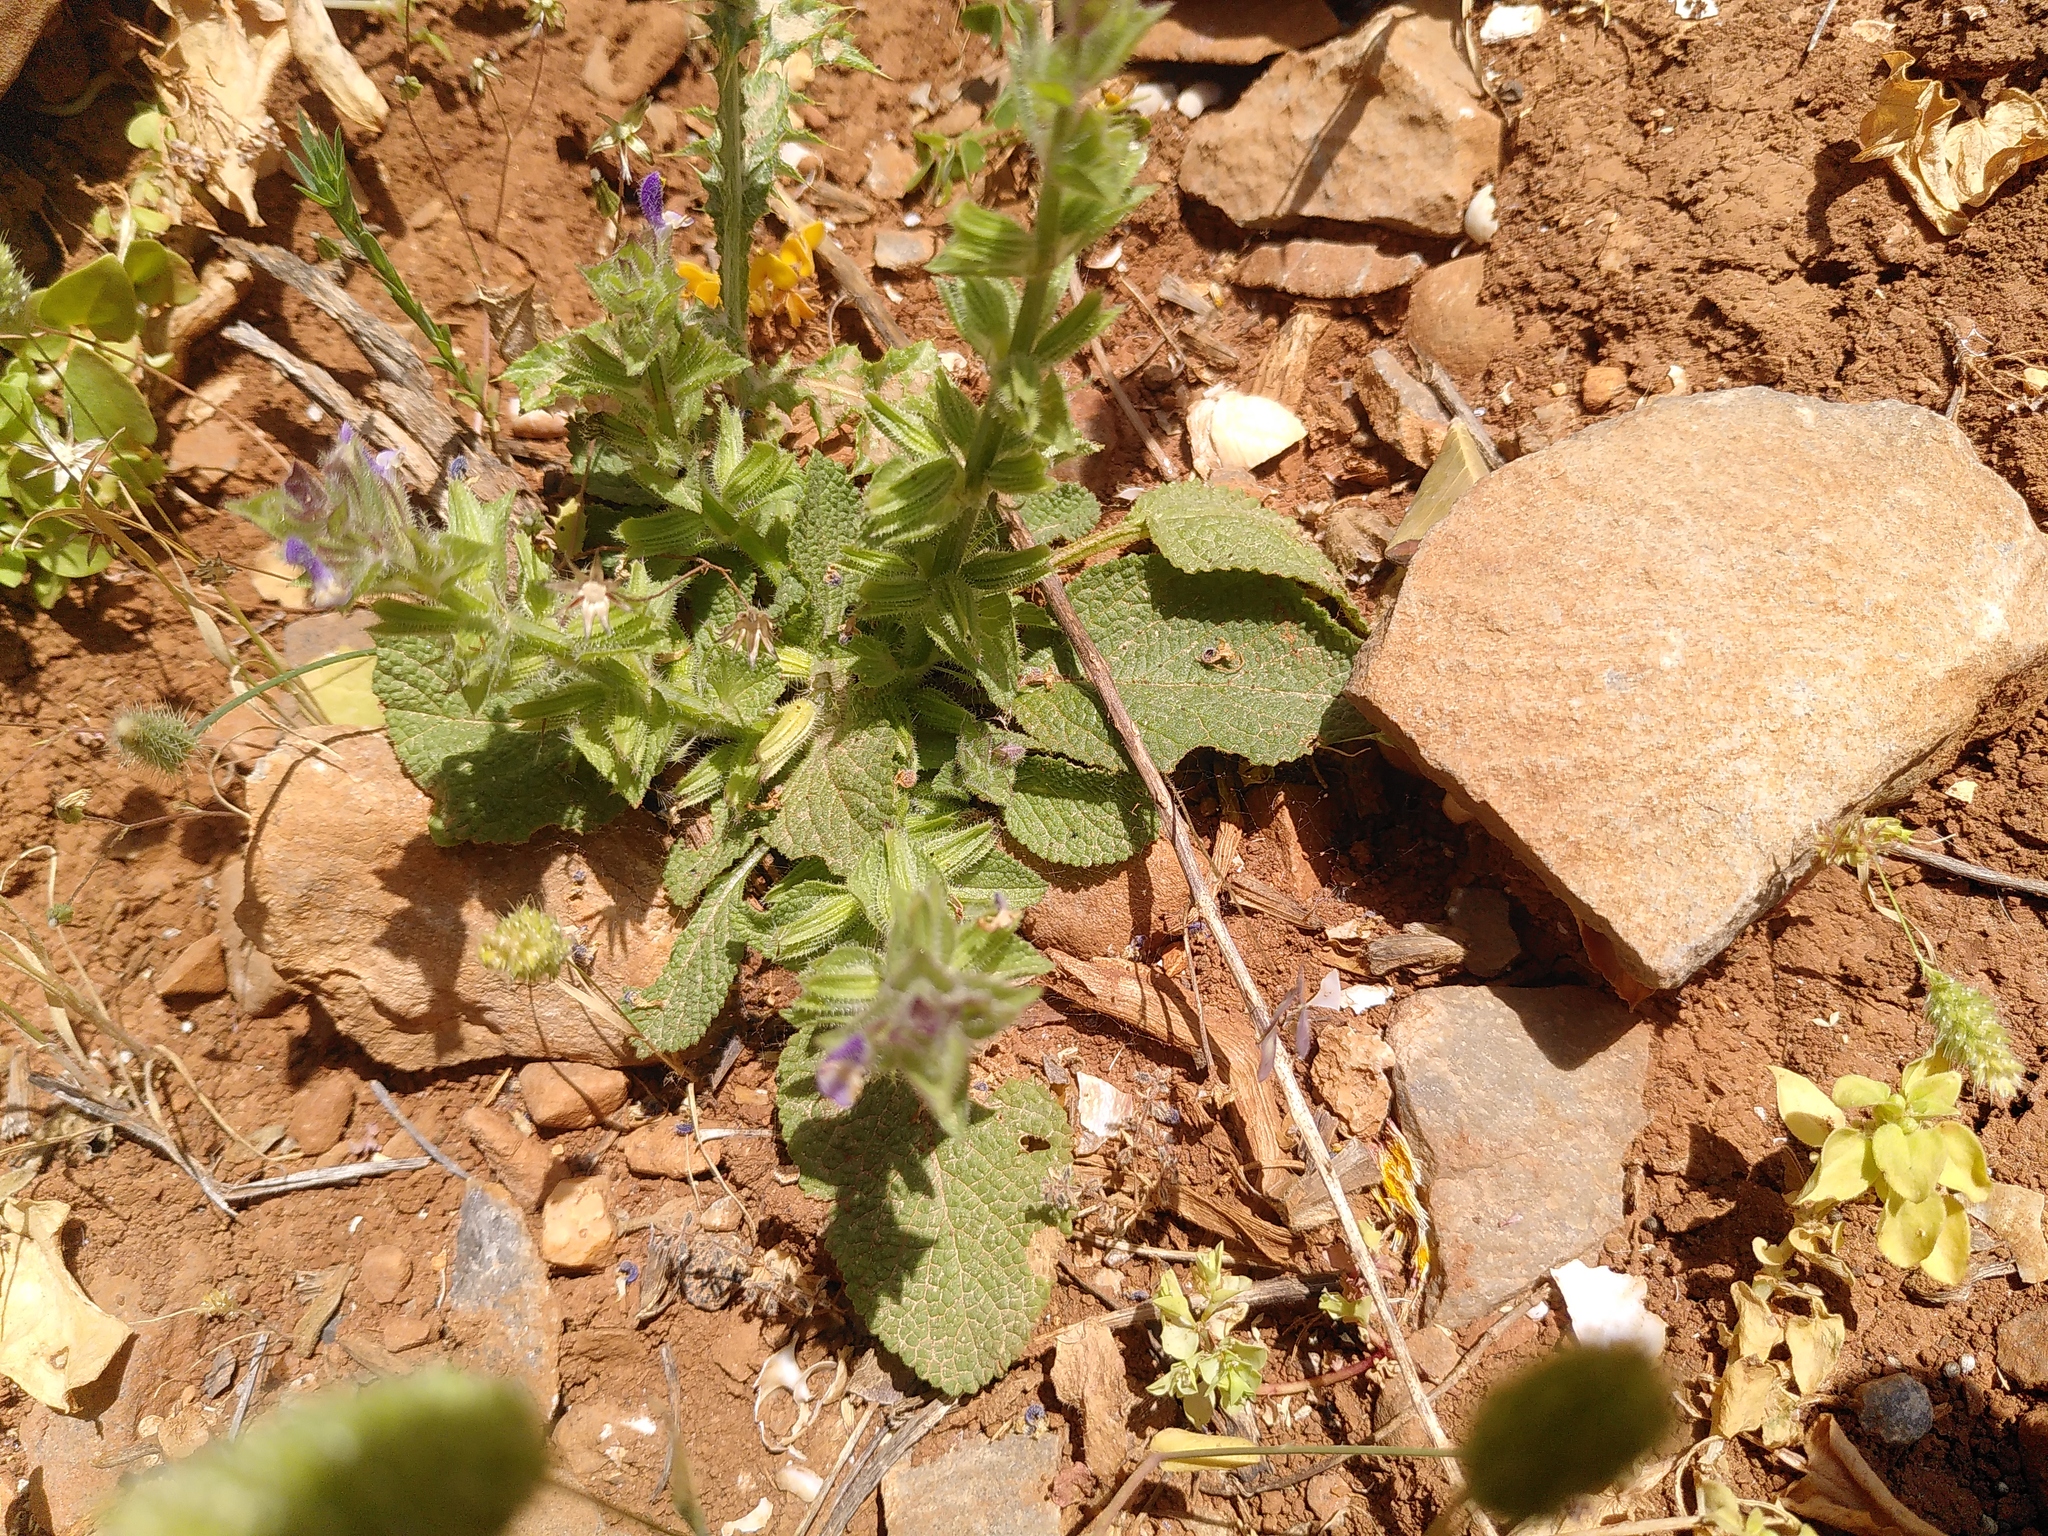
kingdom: Plantae
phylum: Tracheophyta
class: Magnoliopsida
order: Lamiales
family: Lamiaceae
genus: Salvia
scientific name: Salvia viridis
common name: Annual clary
